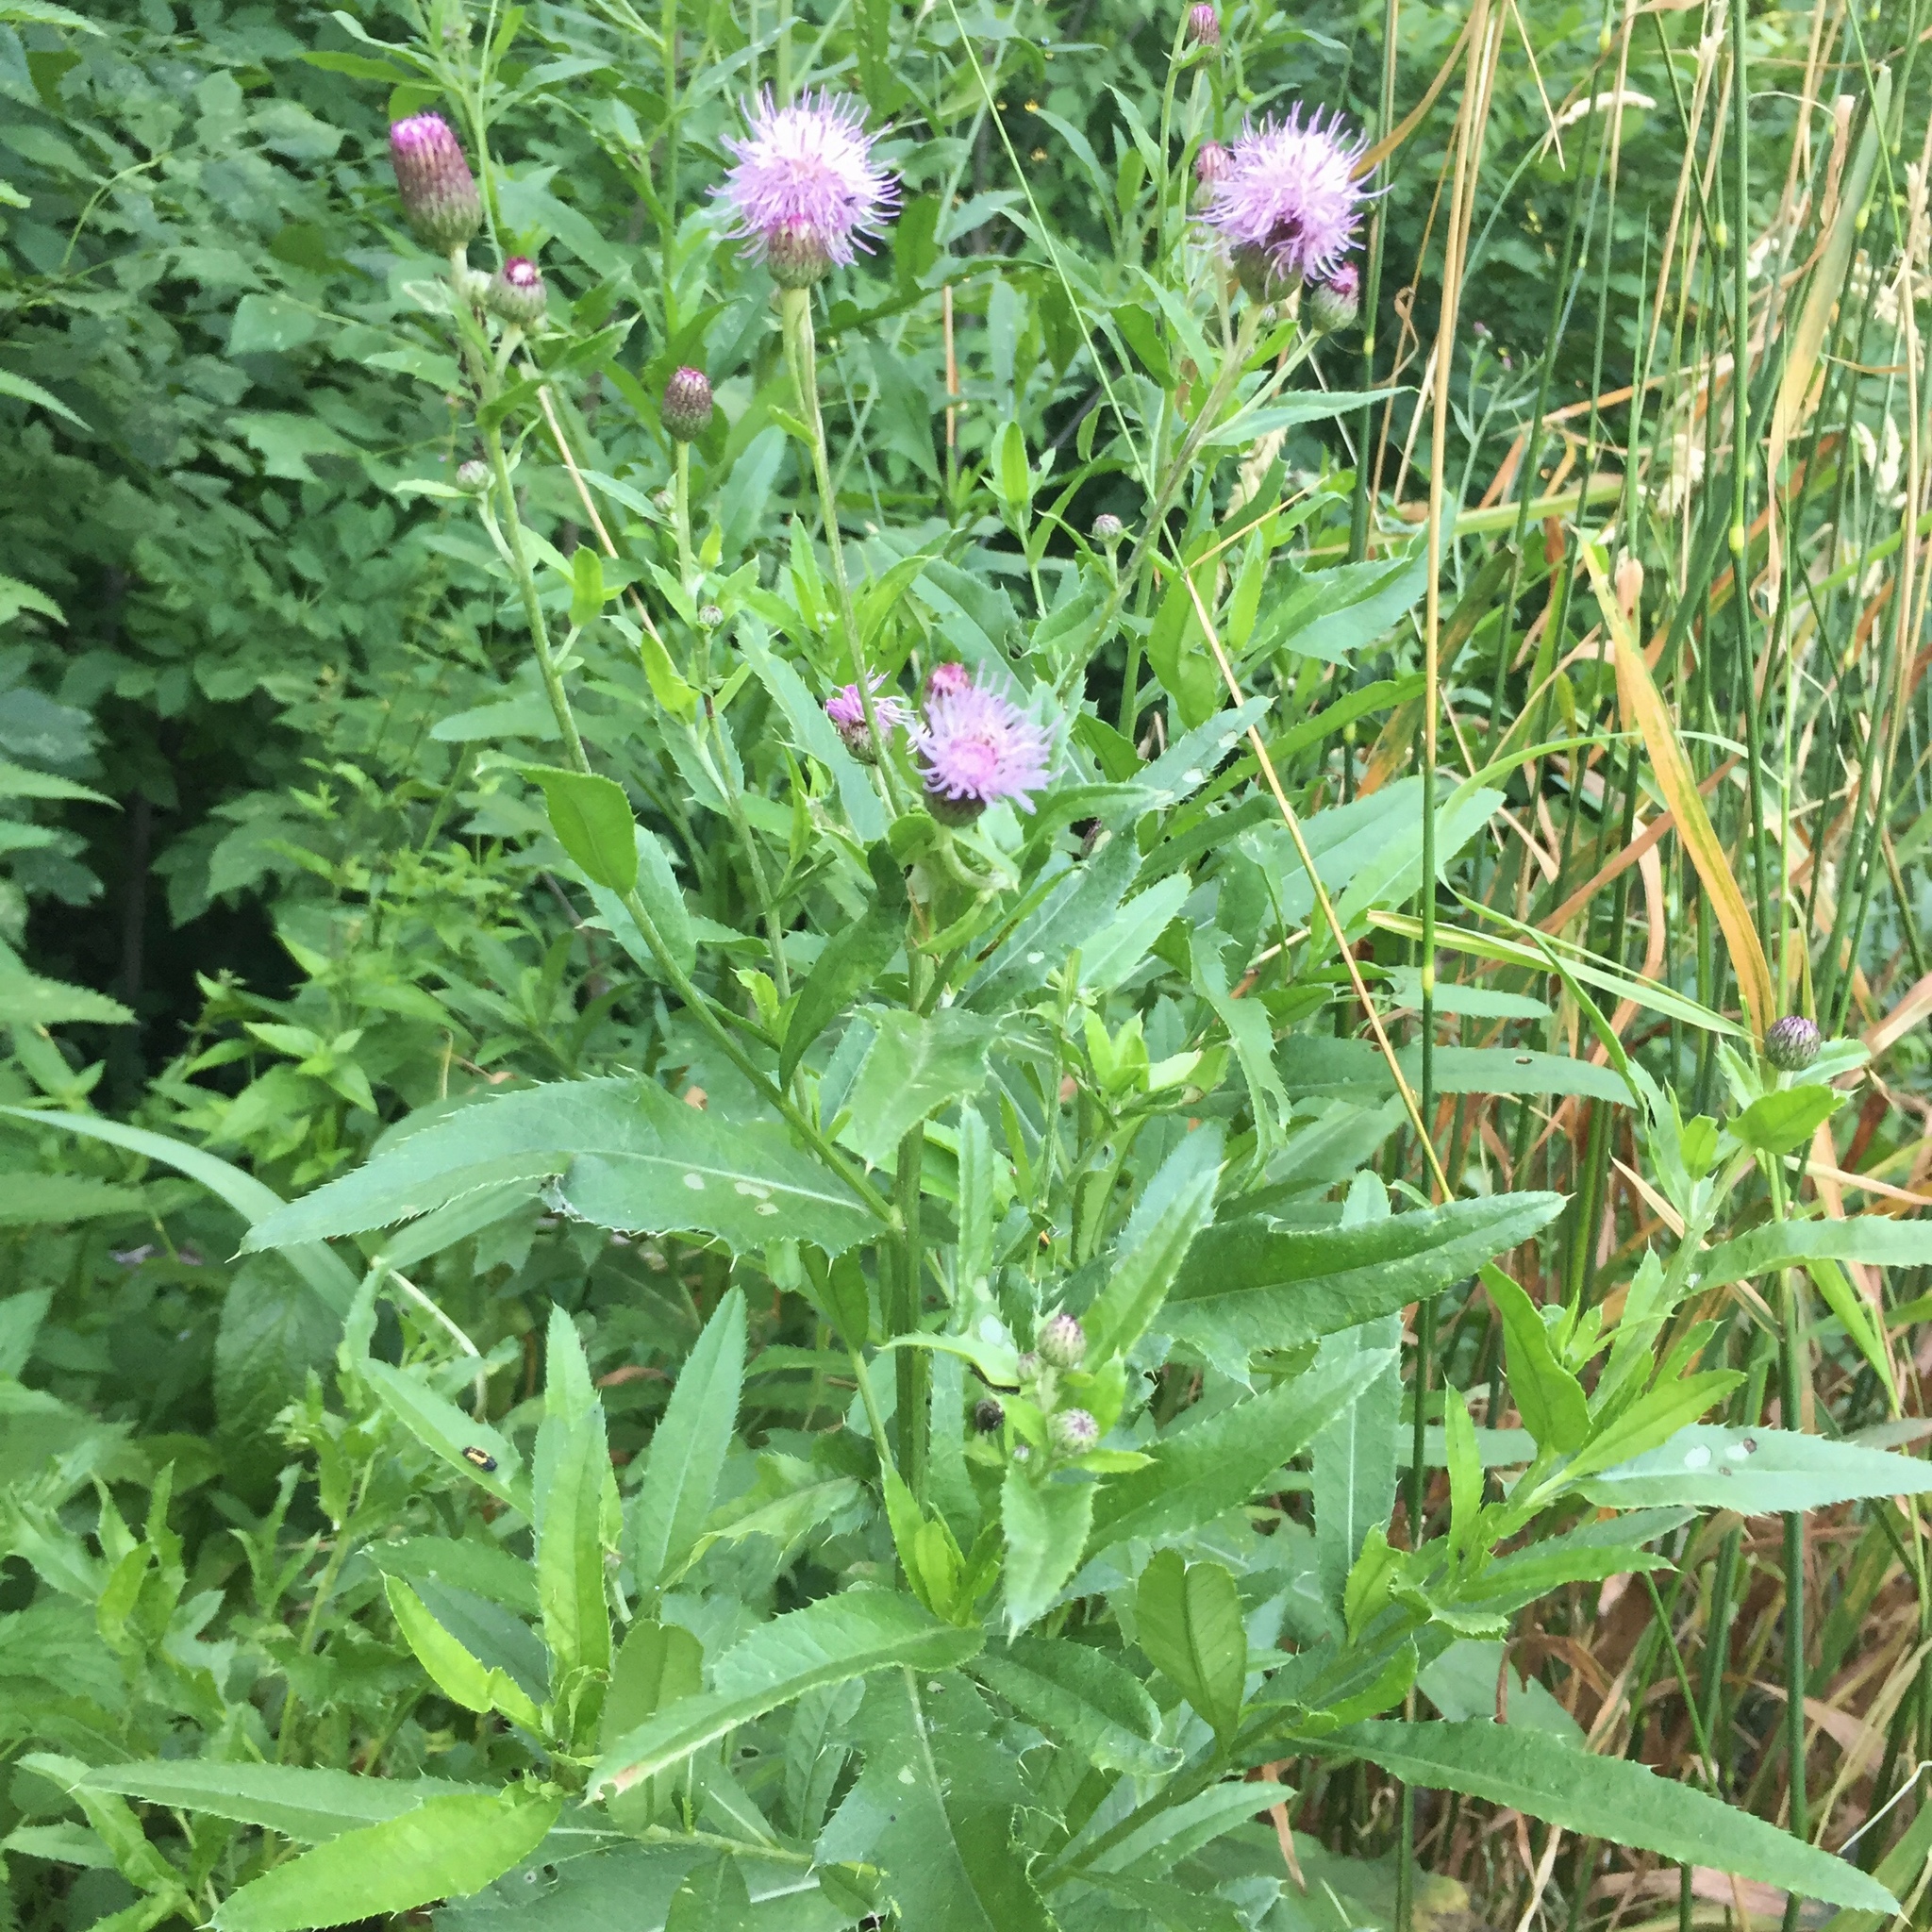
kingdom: Plantae
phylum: Tracheophyta
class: Magnoliopsida
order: Asterales
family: Asteraceae
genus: Cirsium
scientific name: Cirsium arvense
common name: Creeping thistle
